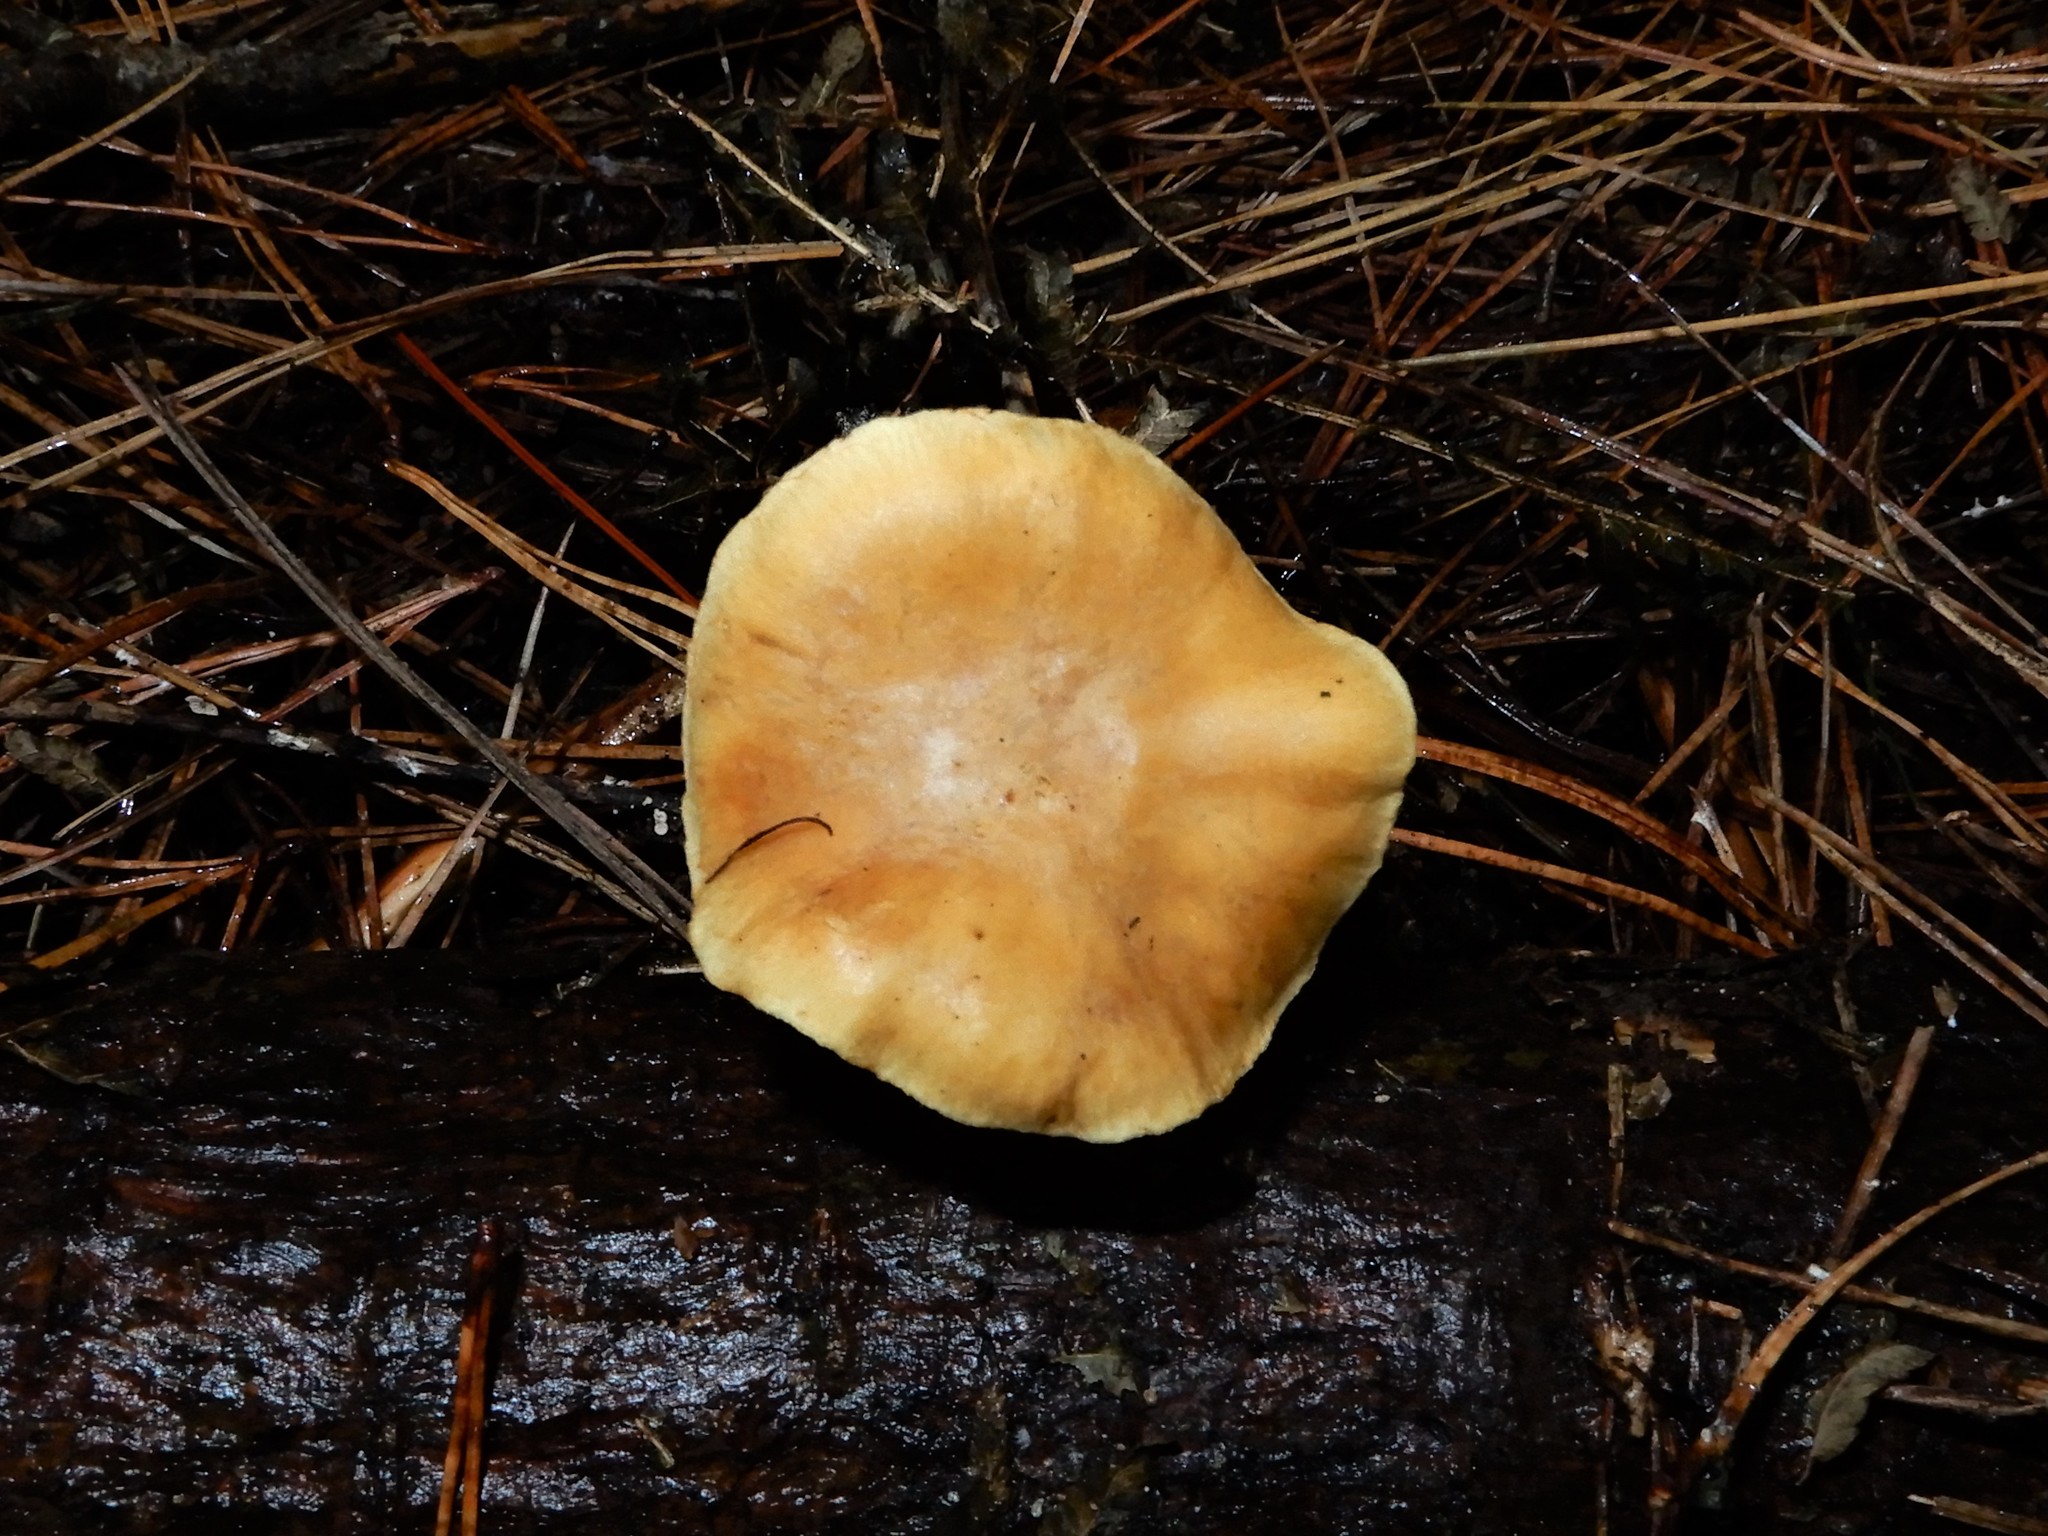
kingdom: Fungi
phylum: Basidiomycota
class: Agaricomycetes
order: Agaricales
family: Hymenogastraceae
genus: Gymnopilus
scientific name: Gymnopilus penetrans
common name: Common rustgill
